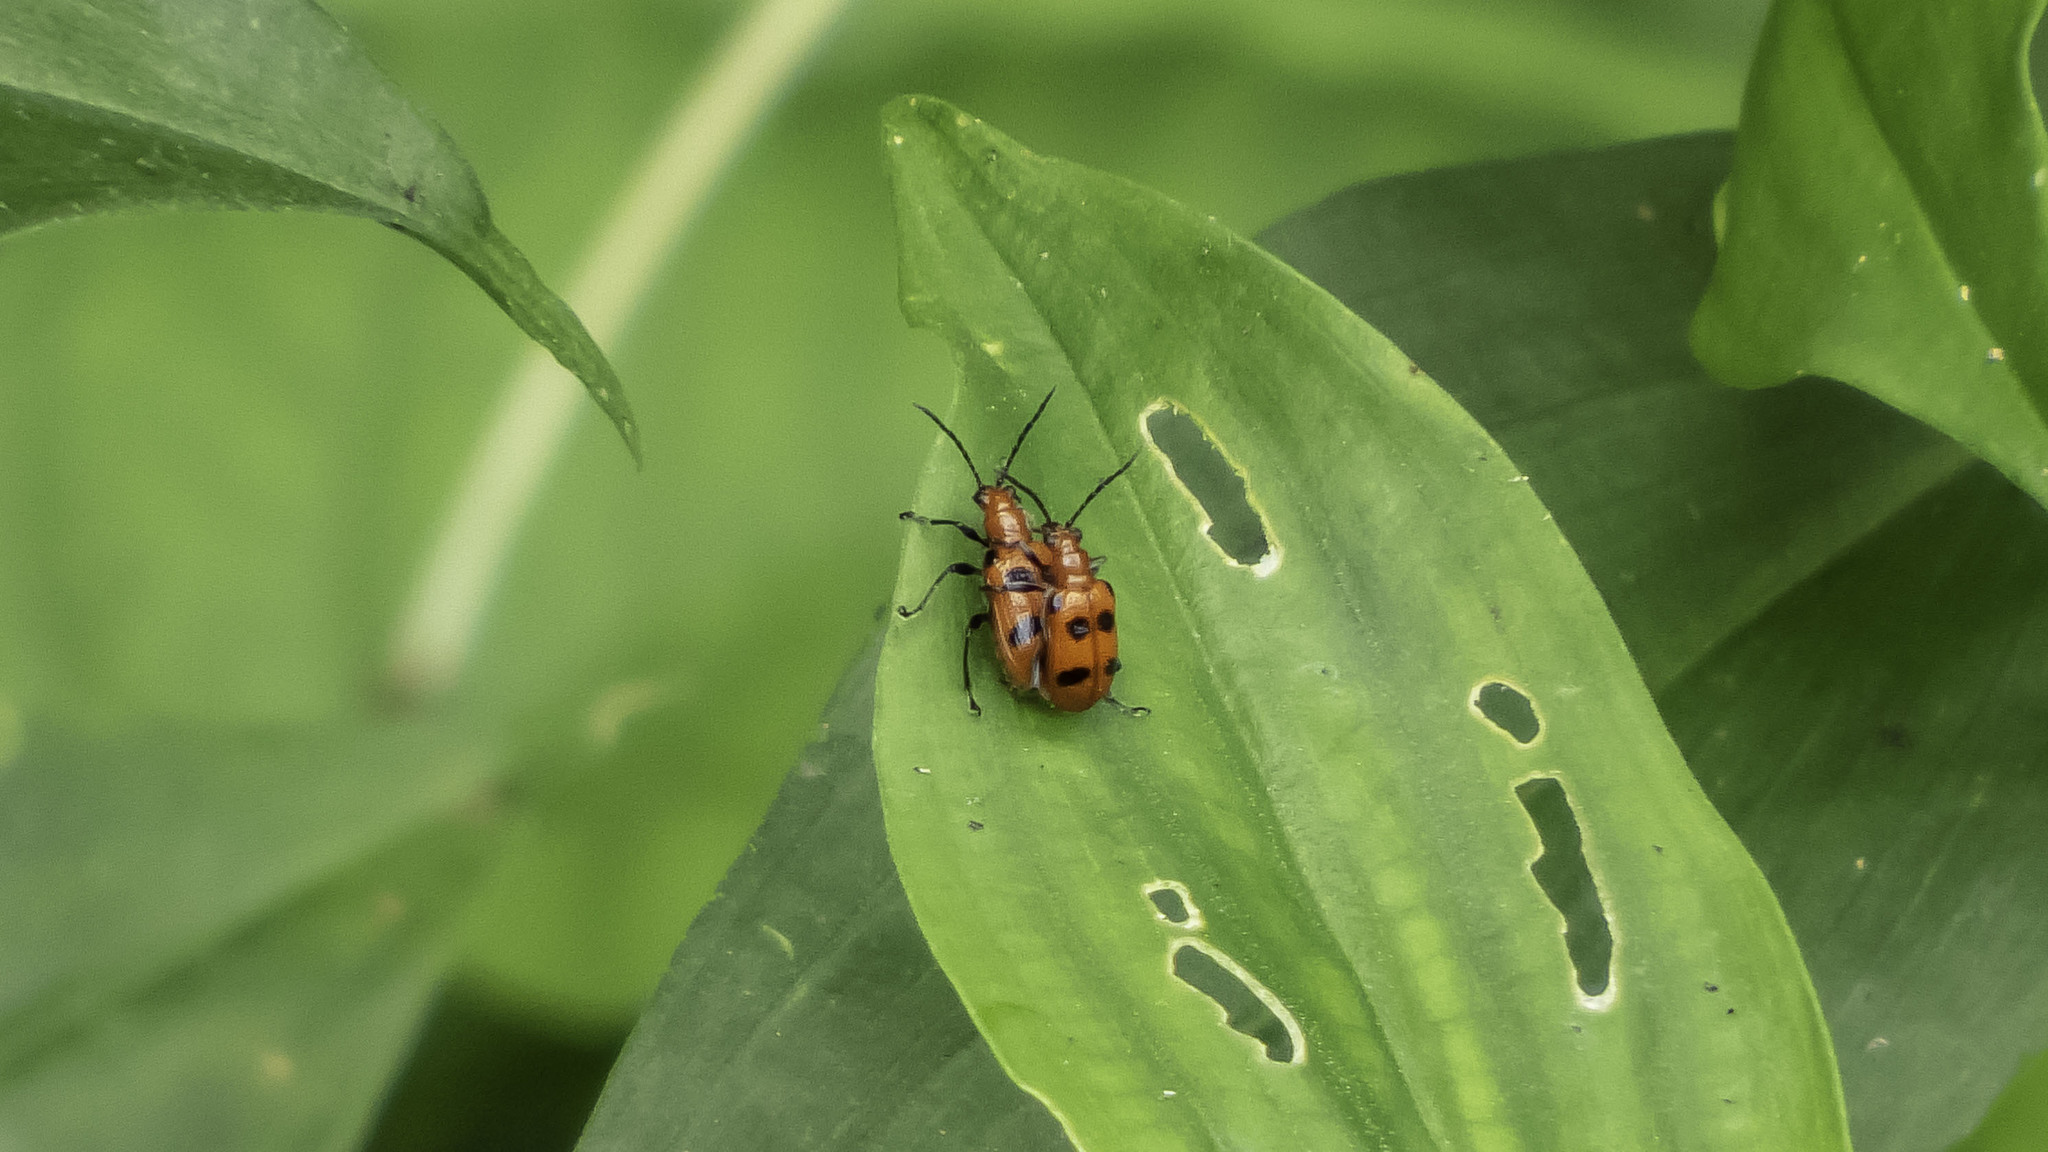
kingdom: Animalia
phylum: Arthropoda
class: Insecta
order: Coleoptera
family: Chrysomelidae
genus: Neolema
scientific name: Neolema sexpunctata
